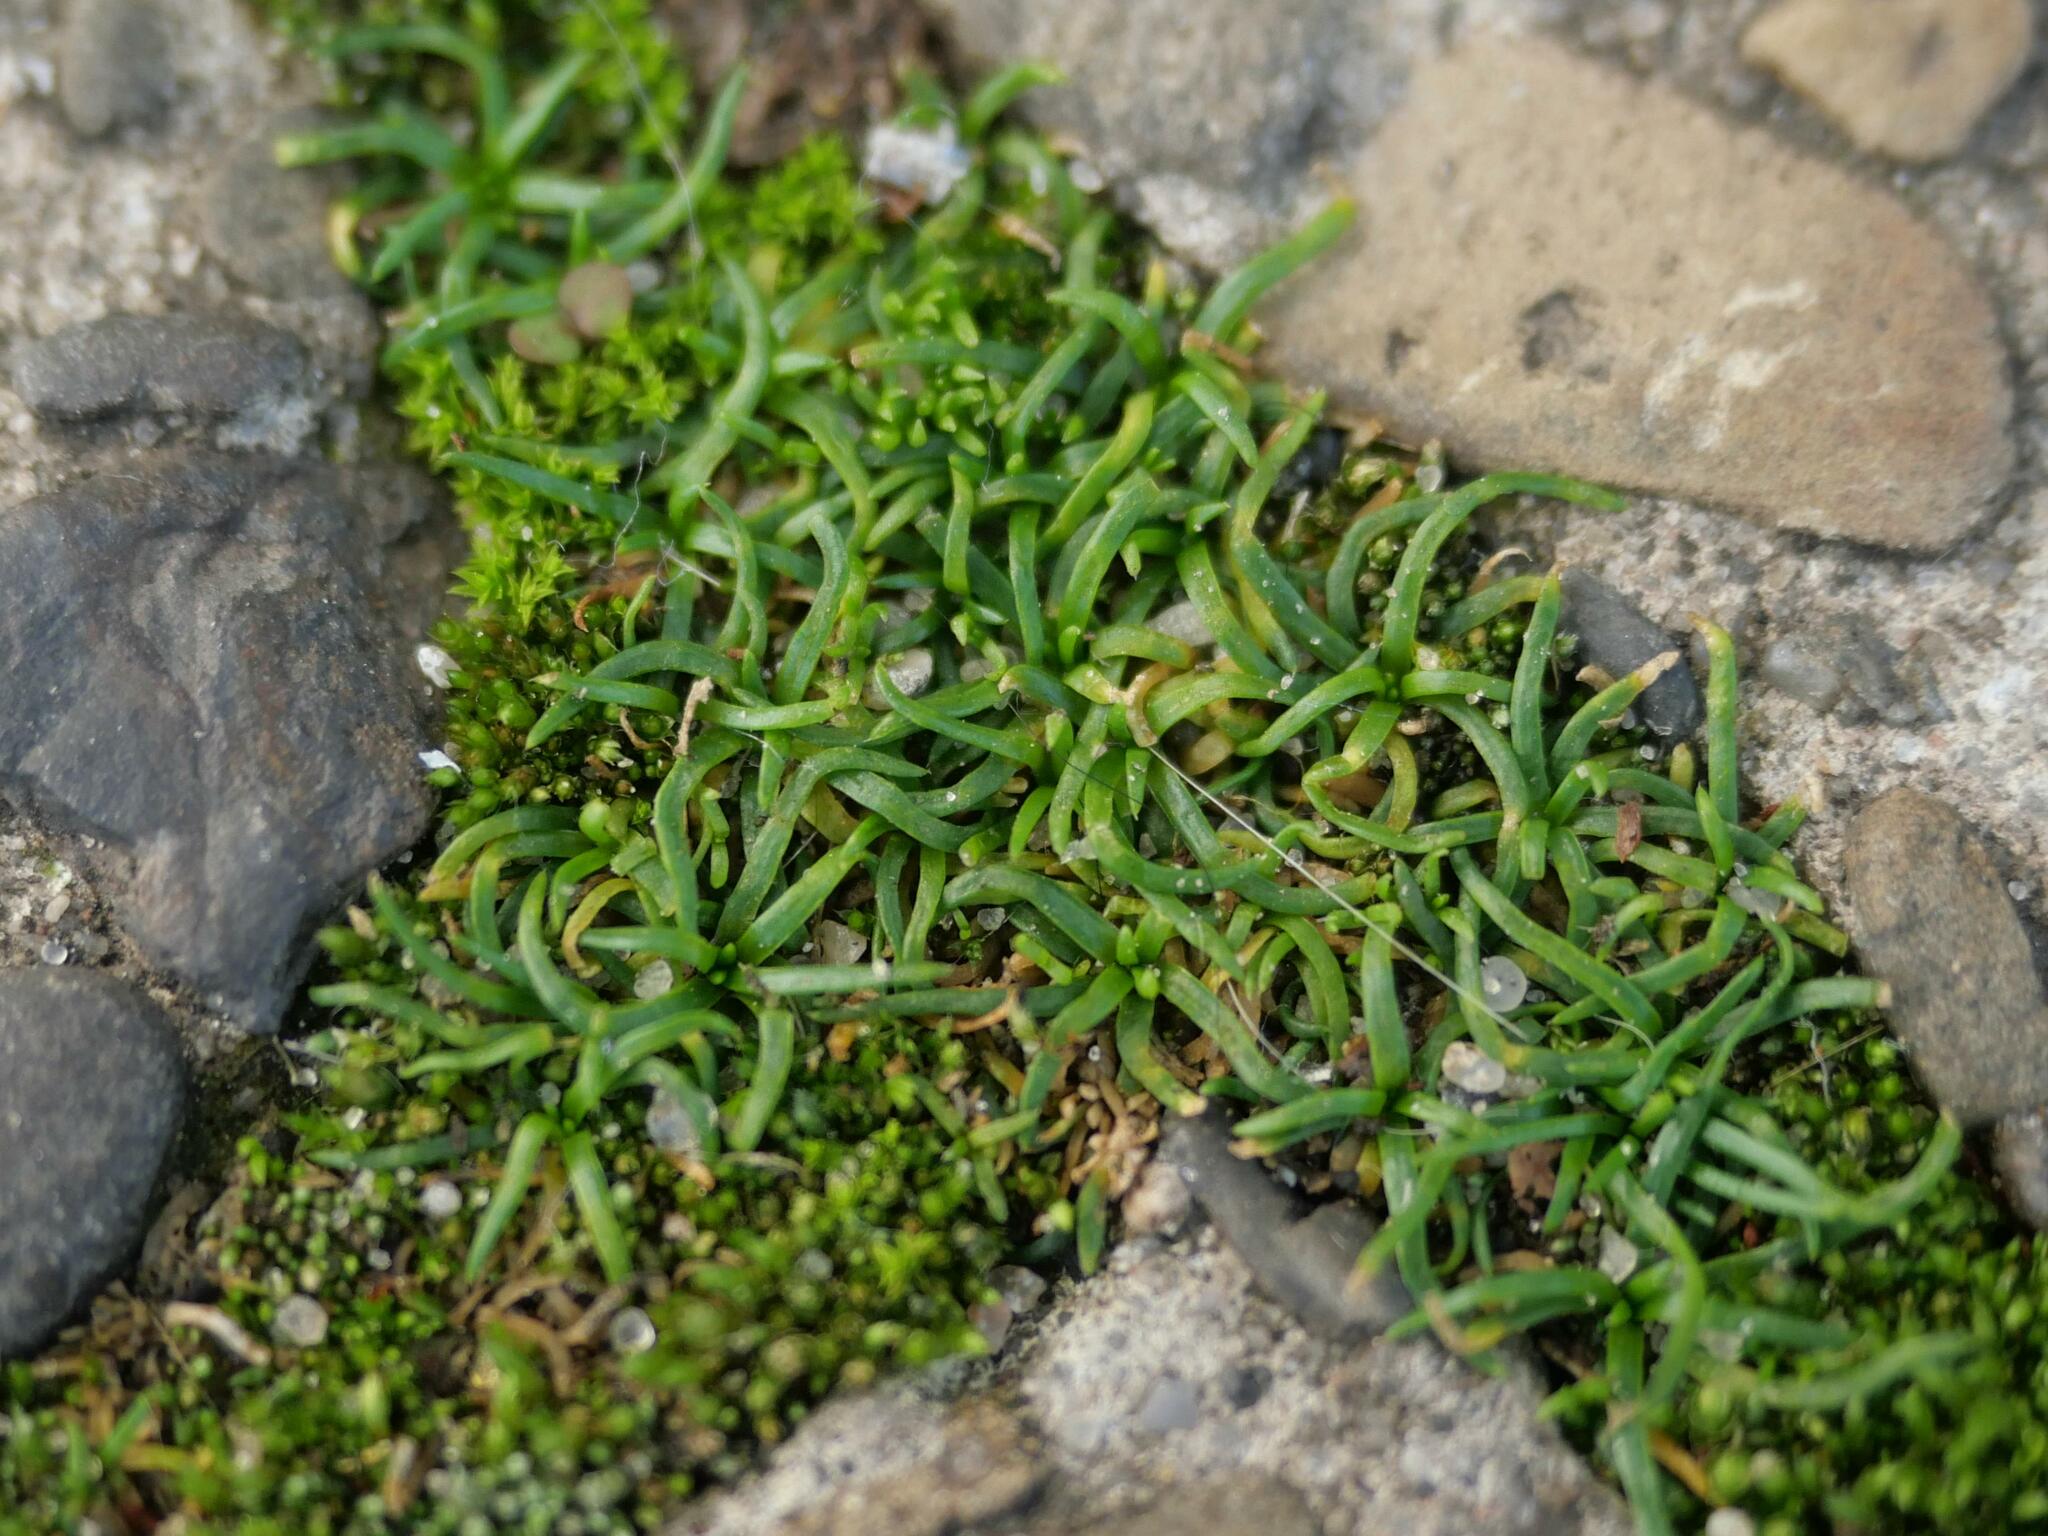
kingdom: Plantae
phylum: Tracheophyta
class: Magnoliopsida
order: Caryophyllales
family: Caryophyllaceae
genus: Sagina
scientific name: Sagina procumbens
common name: Procumbent pearlwort
